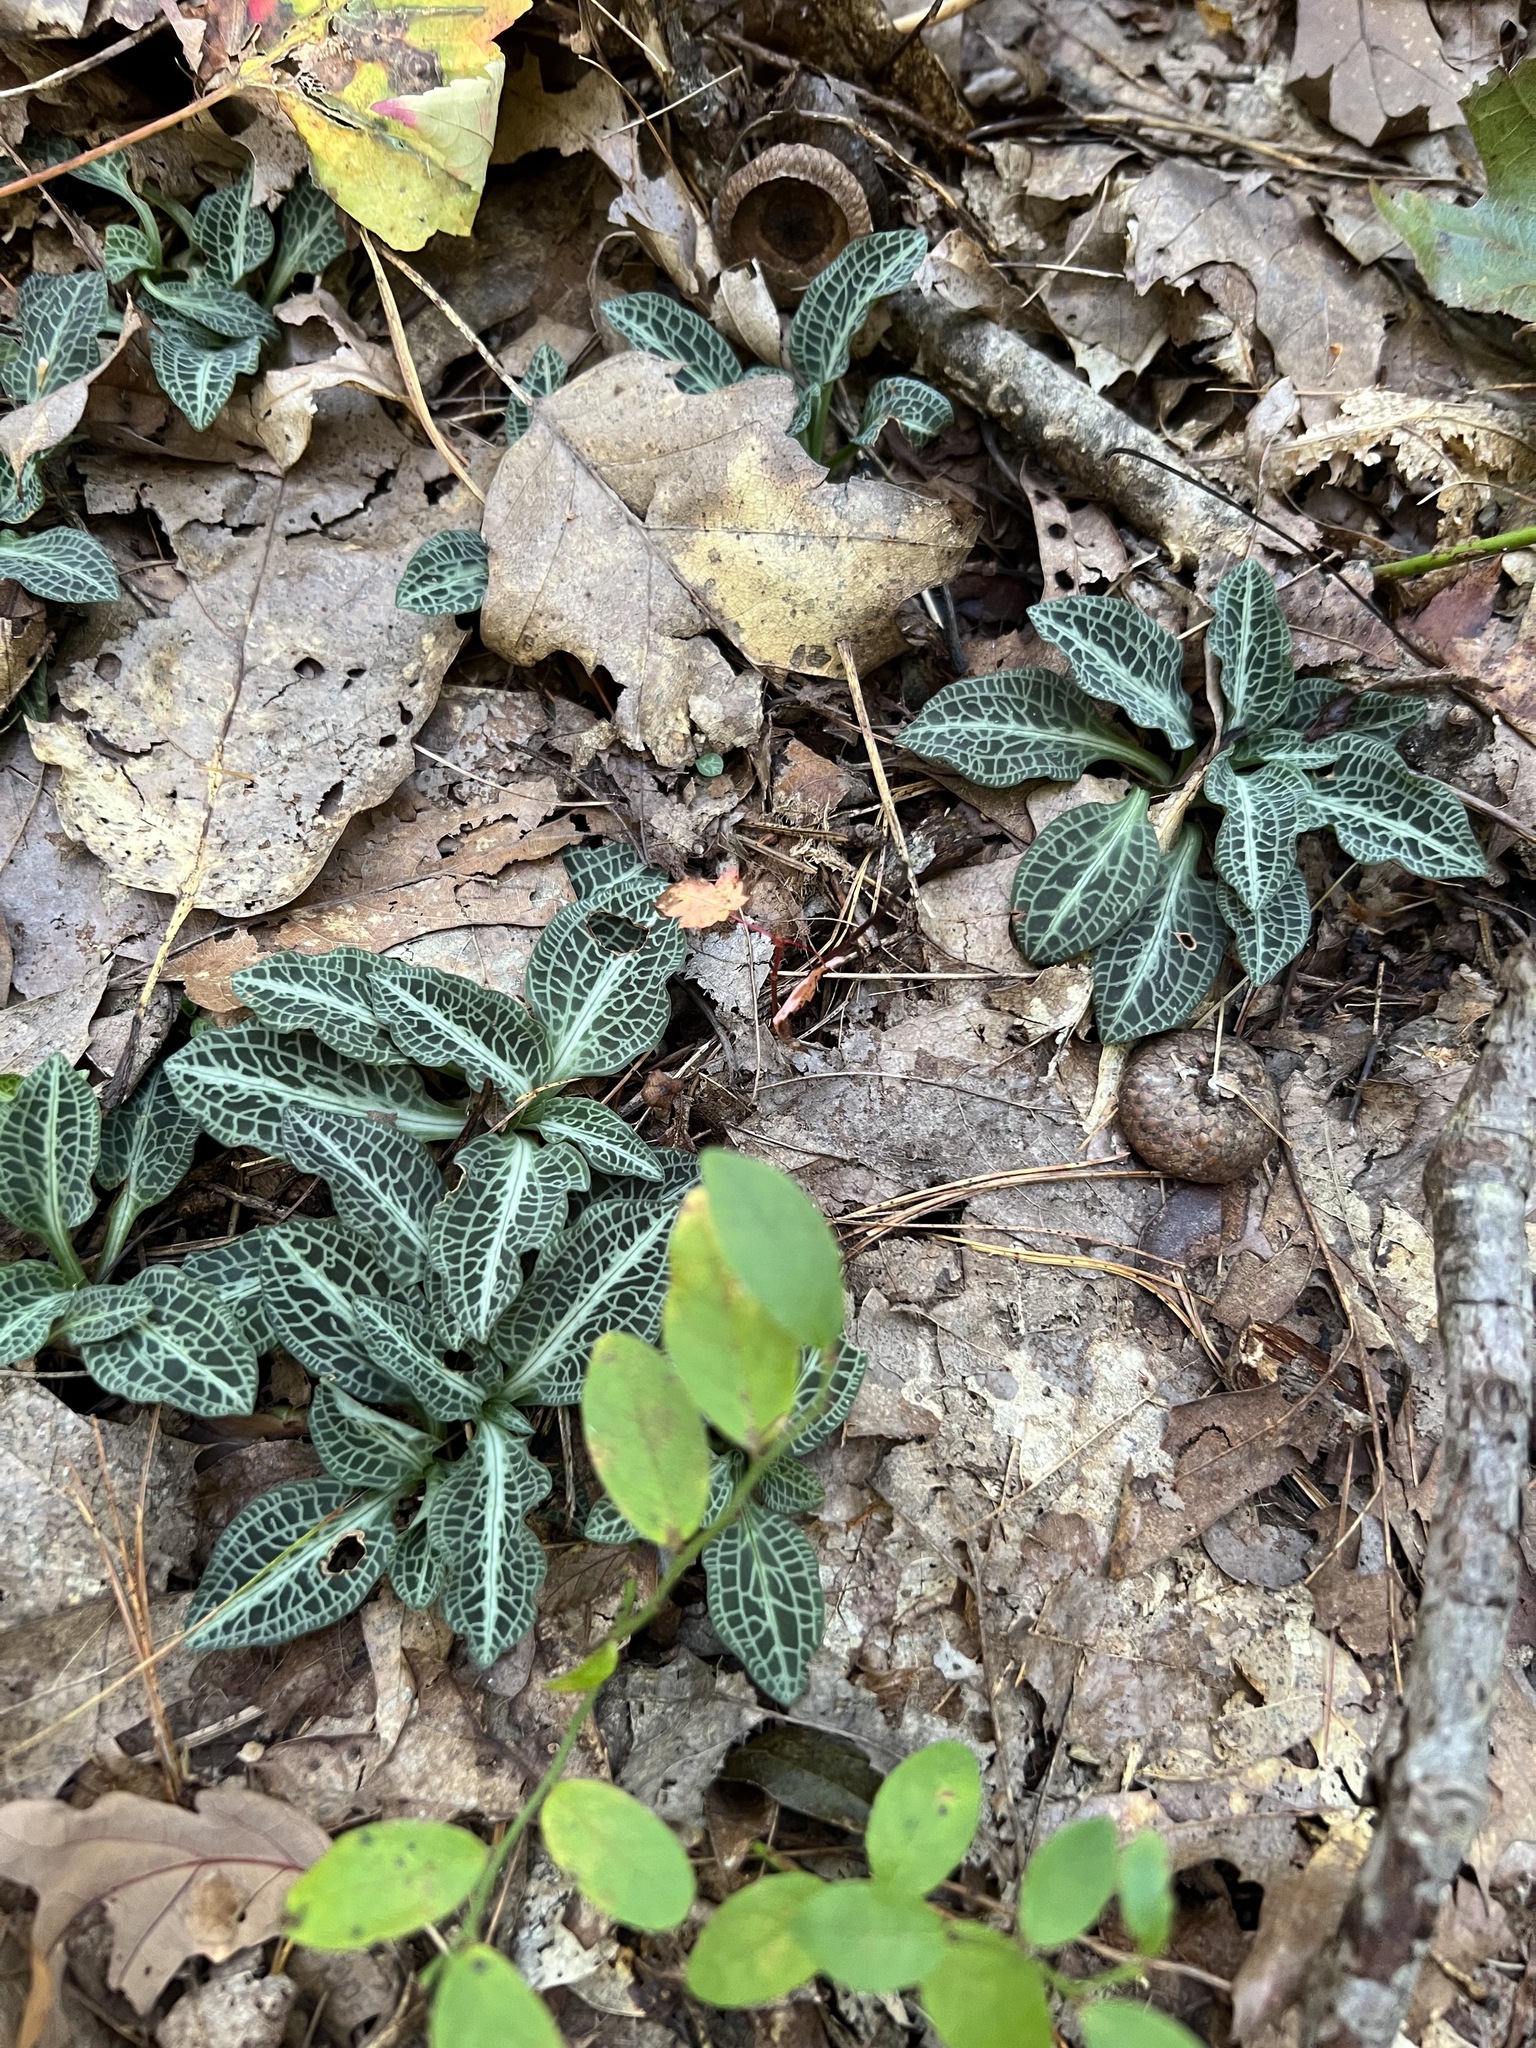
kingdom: Plantae
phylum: Tracheophyta
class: Liliopsida
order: Asparagales
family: Orchidaceae
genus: Goodyera
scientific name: Goodyera pubescens
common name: Downy rattlesnake-plantain
